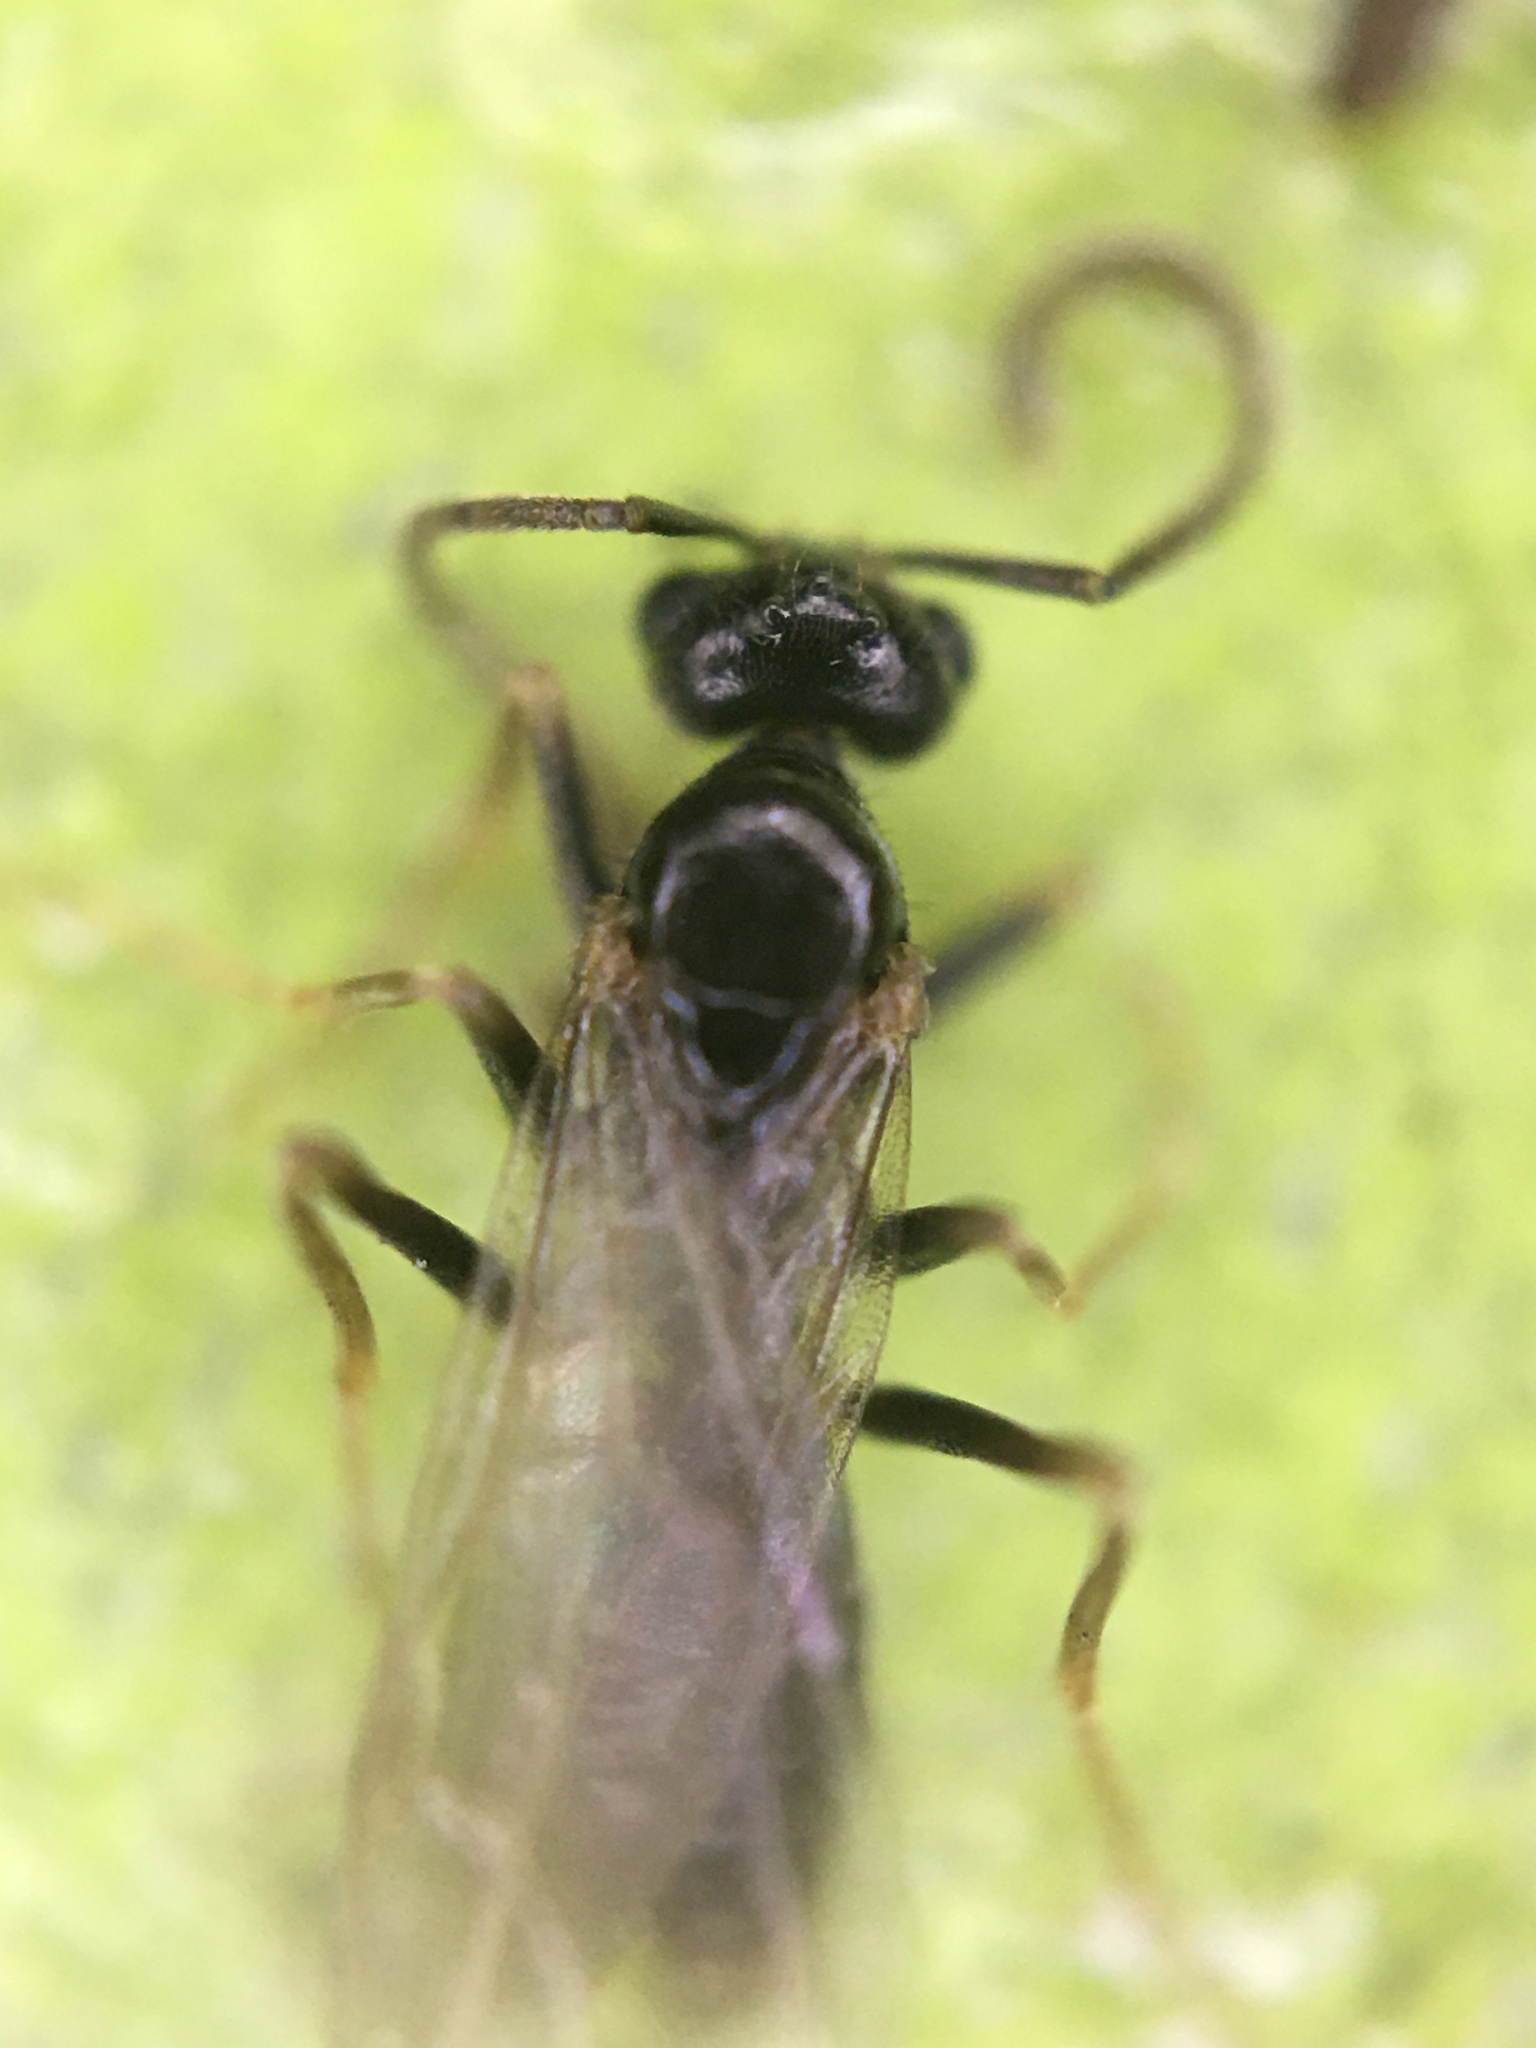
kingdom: Animalia
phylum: Arthropoda
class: Insecta
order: Hymenoptera
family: Formicidae
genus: Prenolepis
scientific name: Prenolepis imparis
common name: Small honey ant
